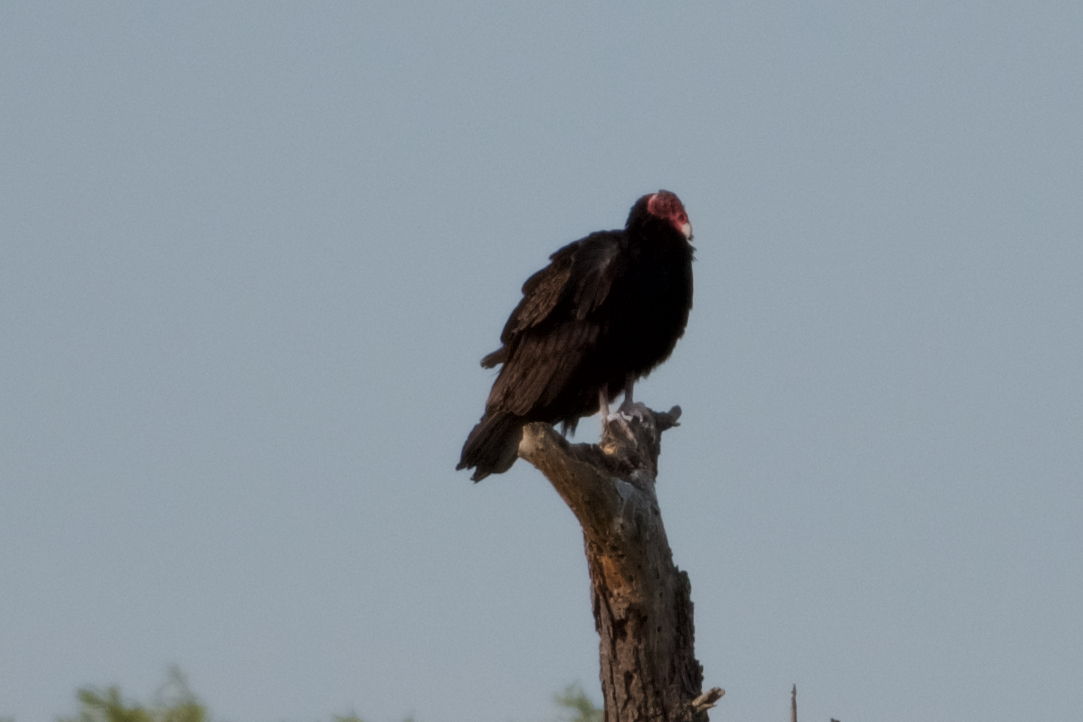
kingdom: Animalia
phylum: Chordata
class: Aves
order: Accipitriformes
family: Cathartidae
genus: Cathartes
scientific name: Cathartes aura
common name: Turkey vulture
